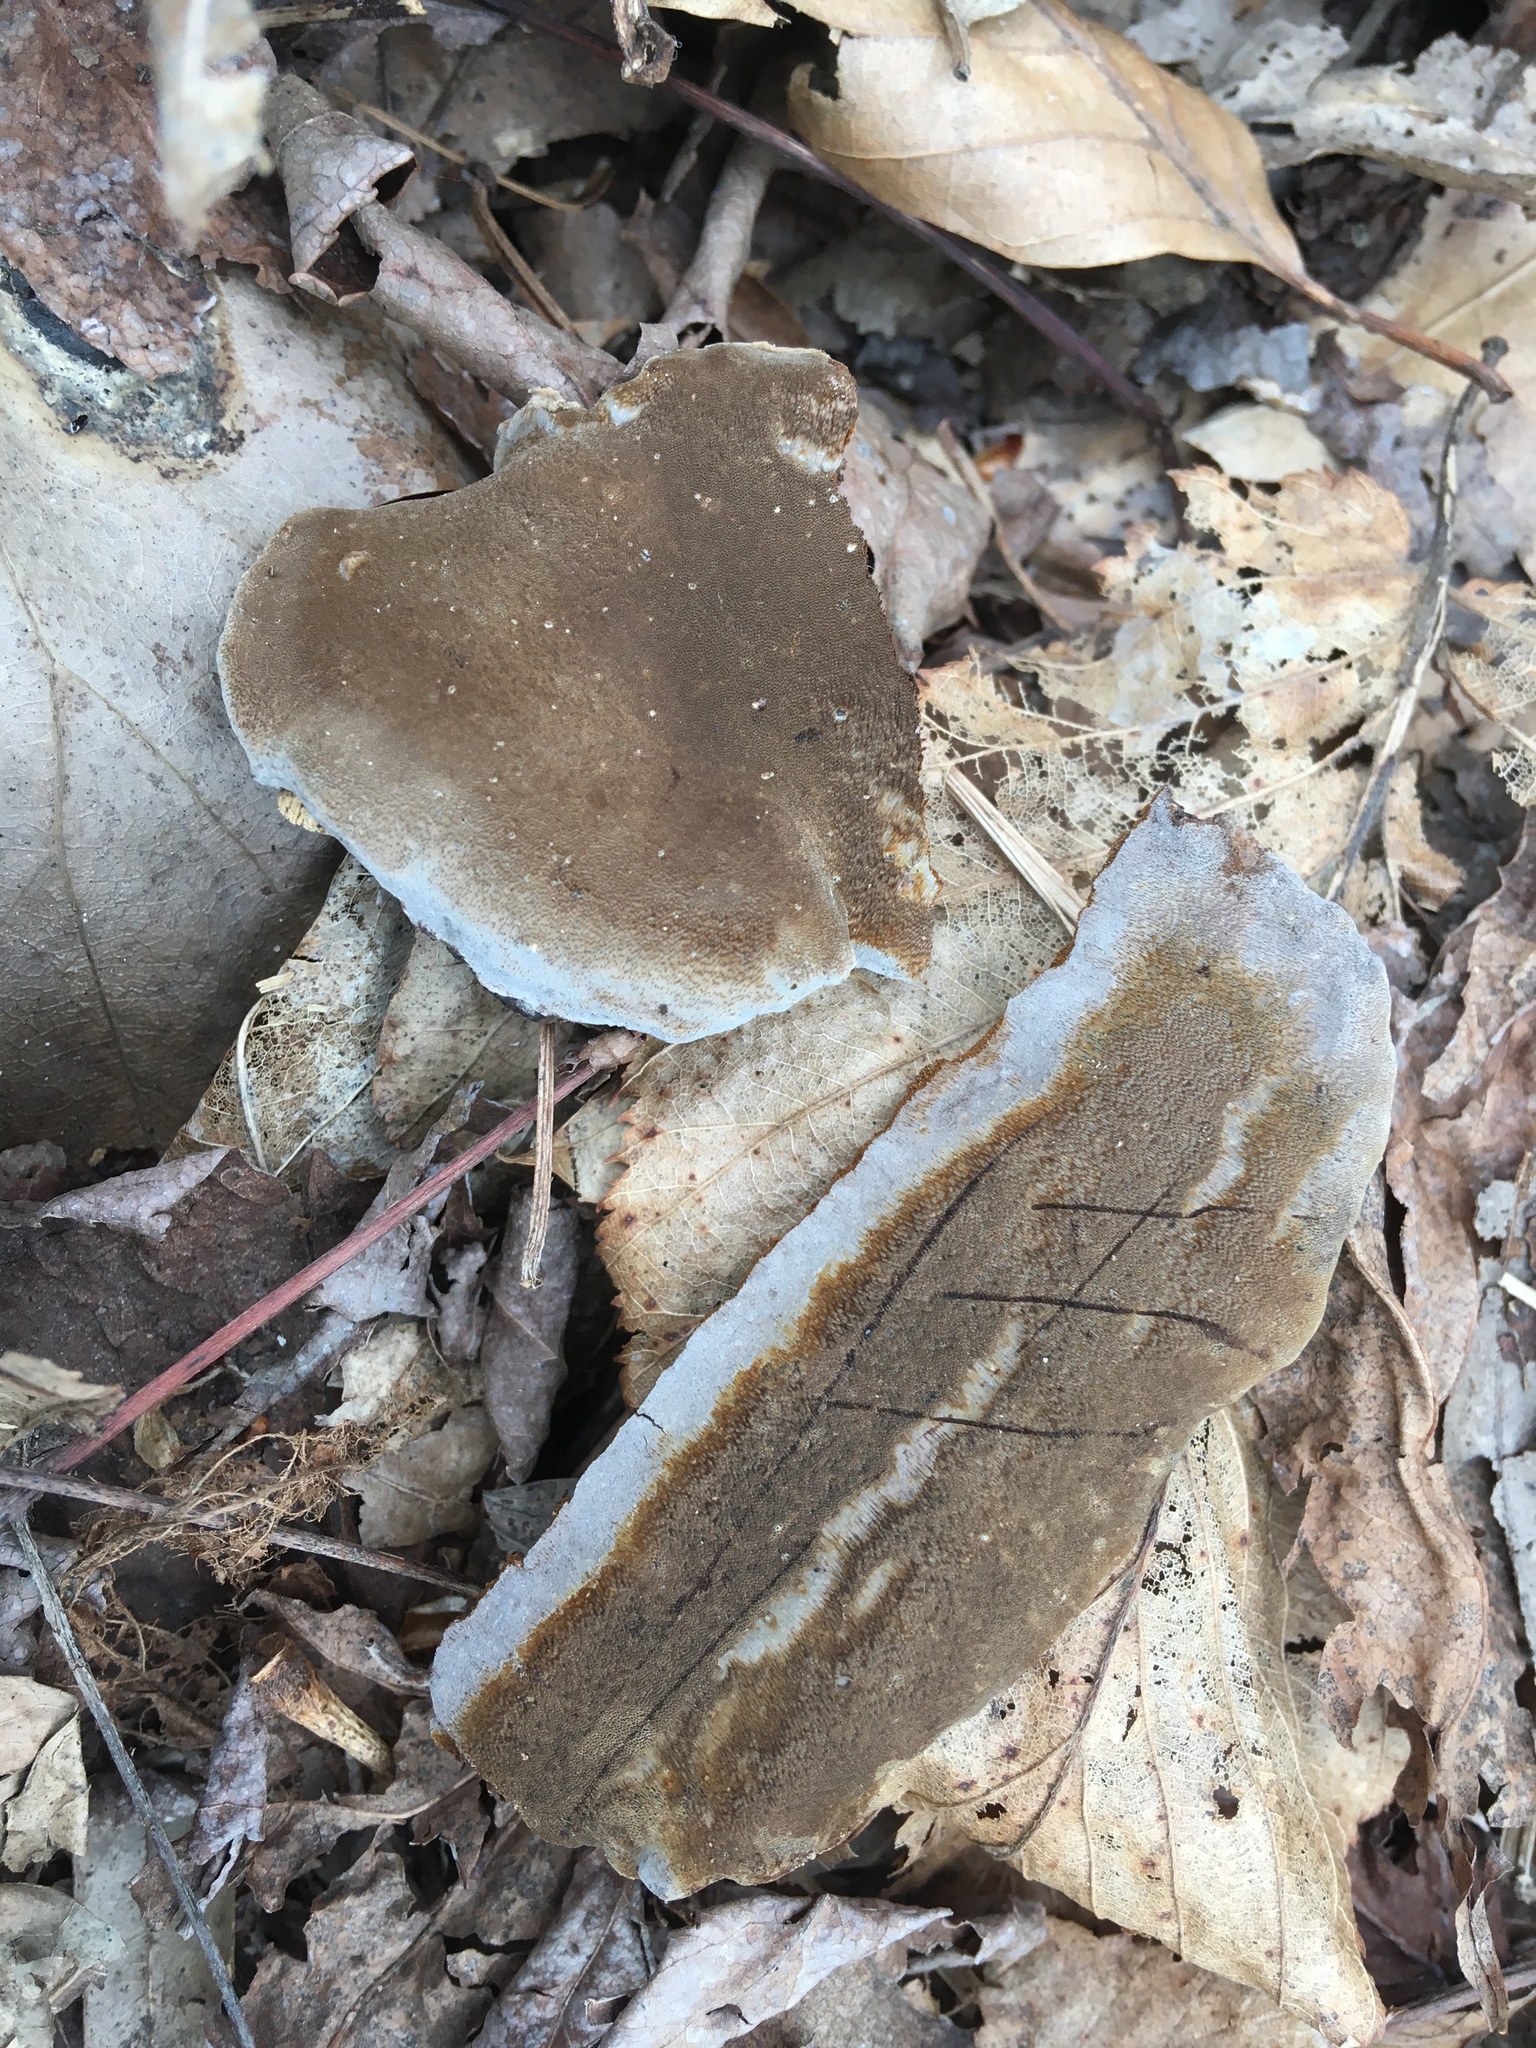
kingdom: Fungi
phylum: Basidiomycota
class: Agaricomycetes
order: Hymenochaetales
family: Hymenochaetaceae
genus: Phellinus
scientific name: Phellinus betulinus
